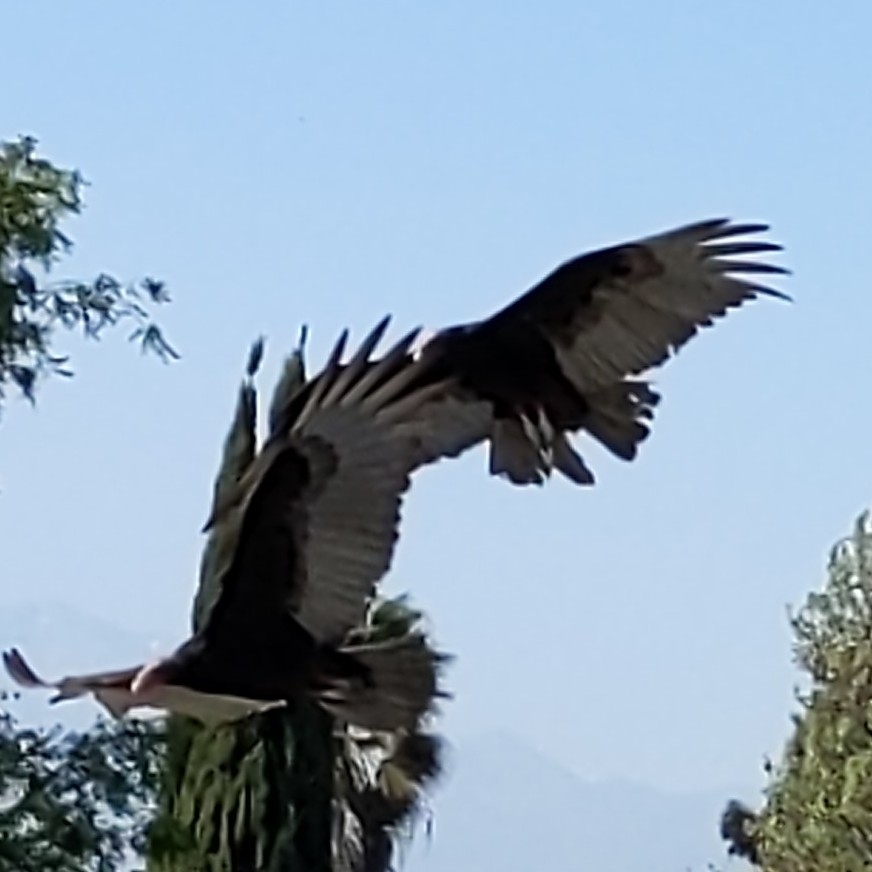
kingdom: Animalia
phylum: Chordata
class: Aves
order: Accipitriformes
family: Cathartidae
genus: Cathartes
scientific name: Cathartes aura
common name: Turkey vulture
